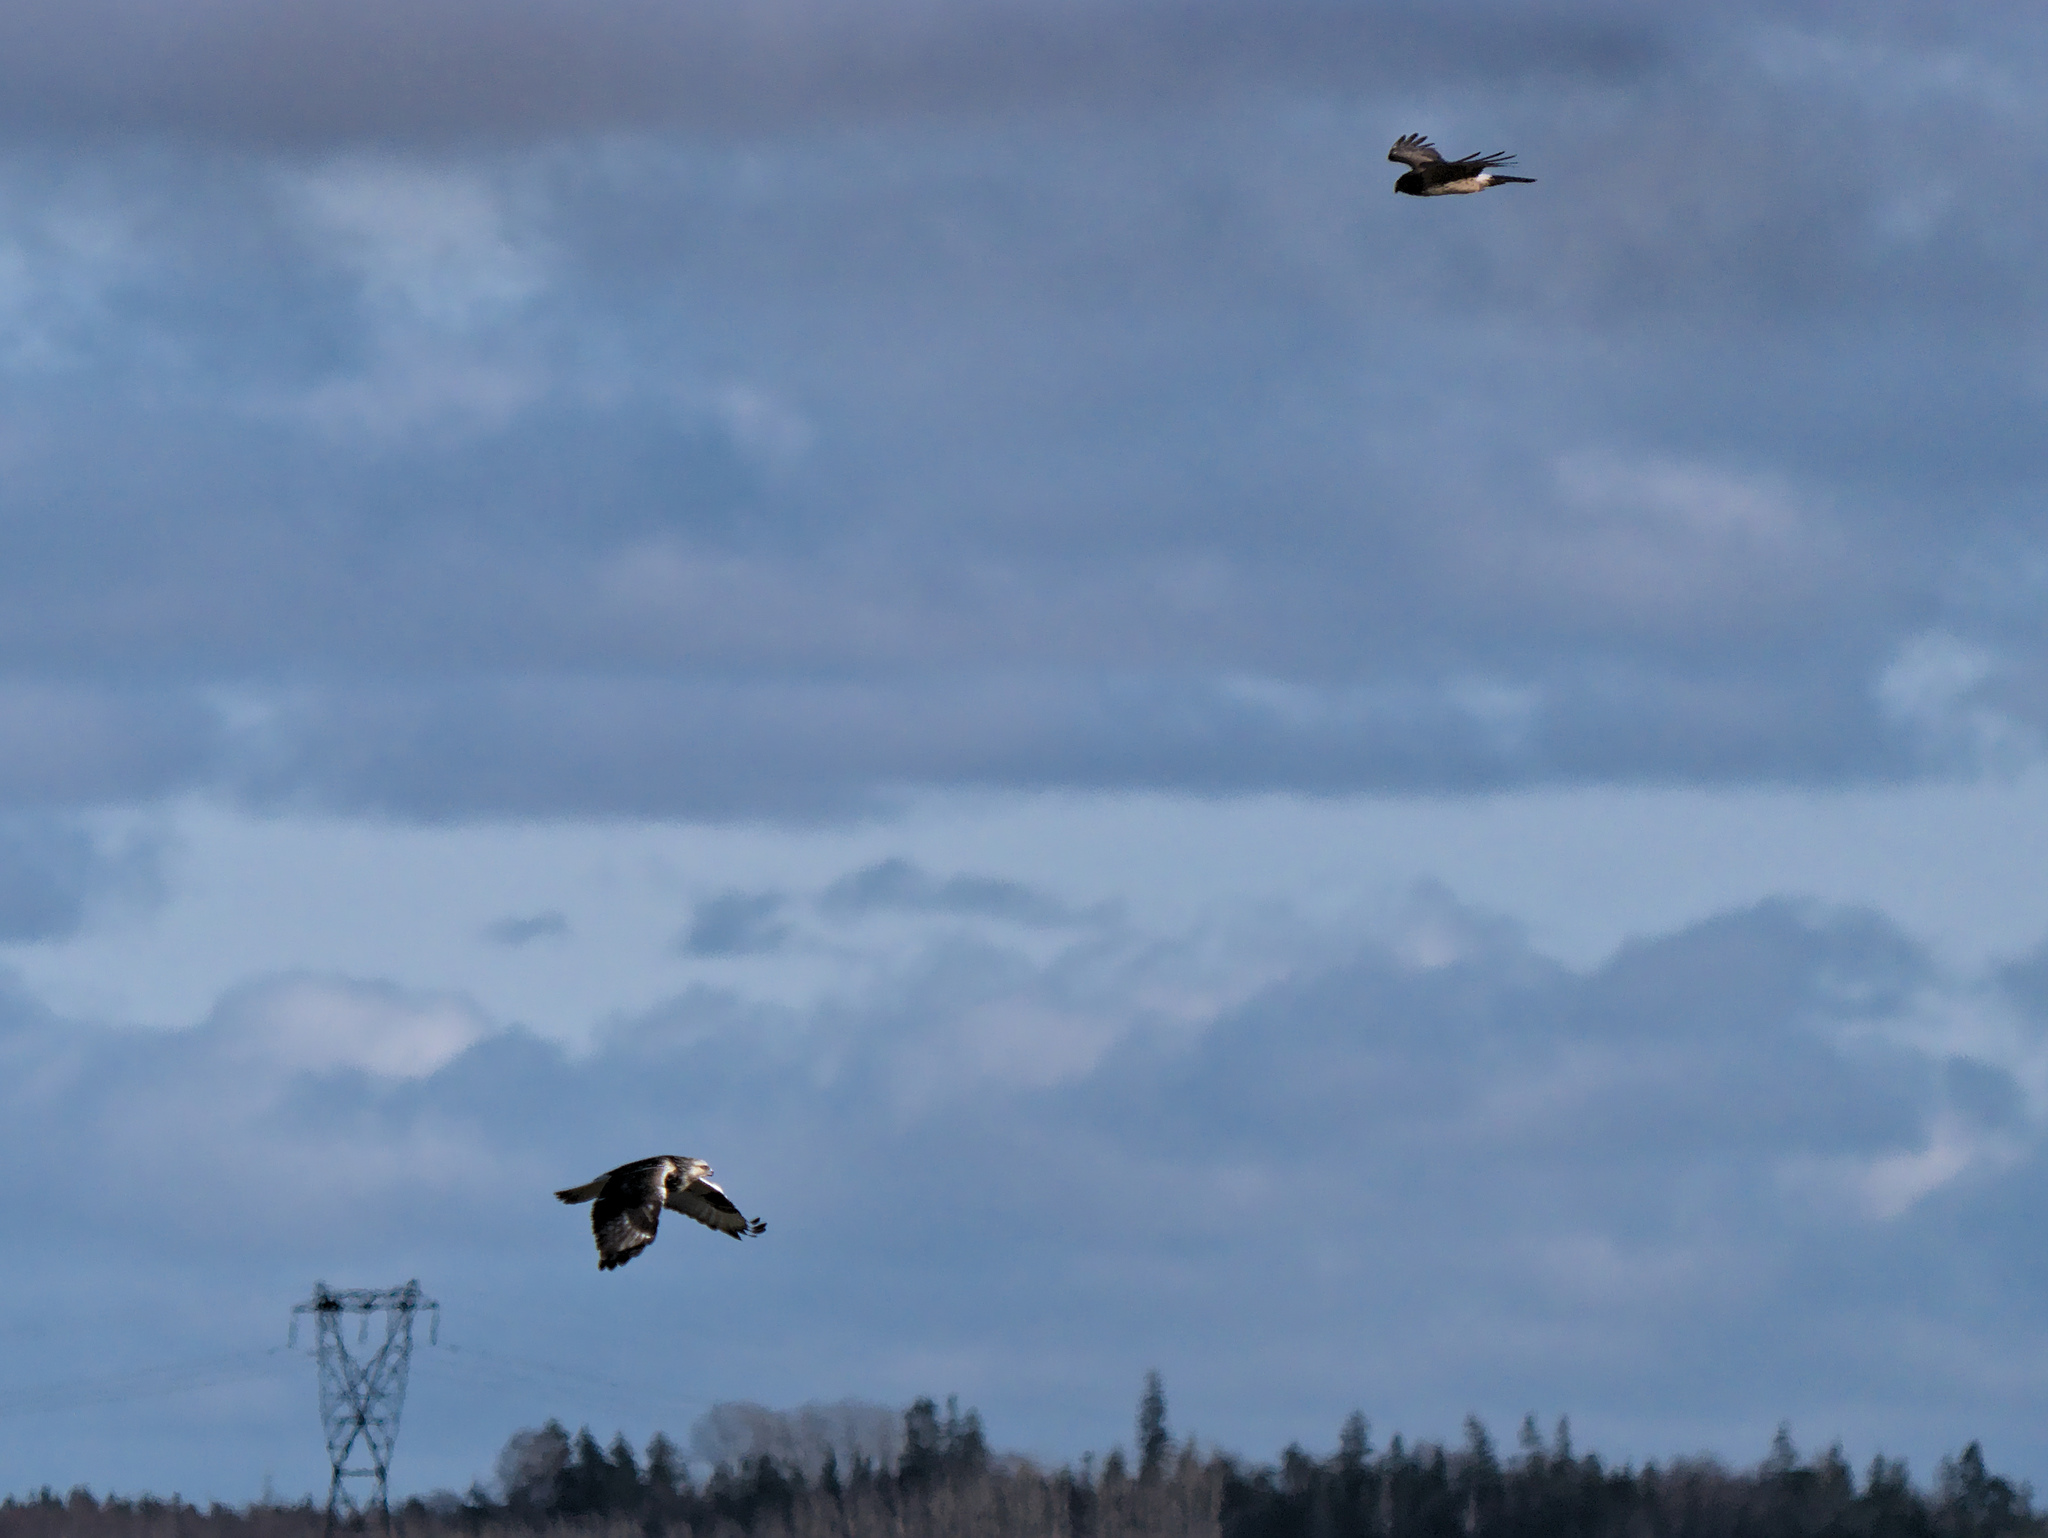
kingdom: Animalia
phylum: Chordata
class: Aves
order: Accipitriformes
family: Accipitridae
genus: Circus
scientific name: Circus cyaneus
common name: Hen harrier
